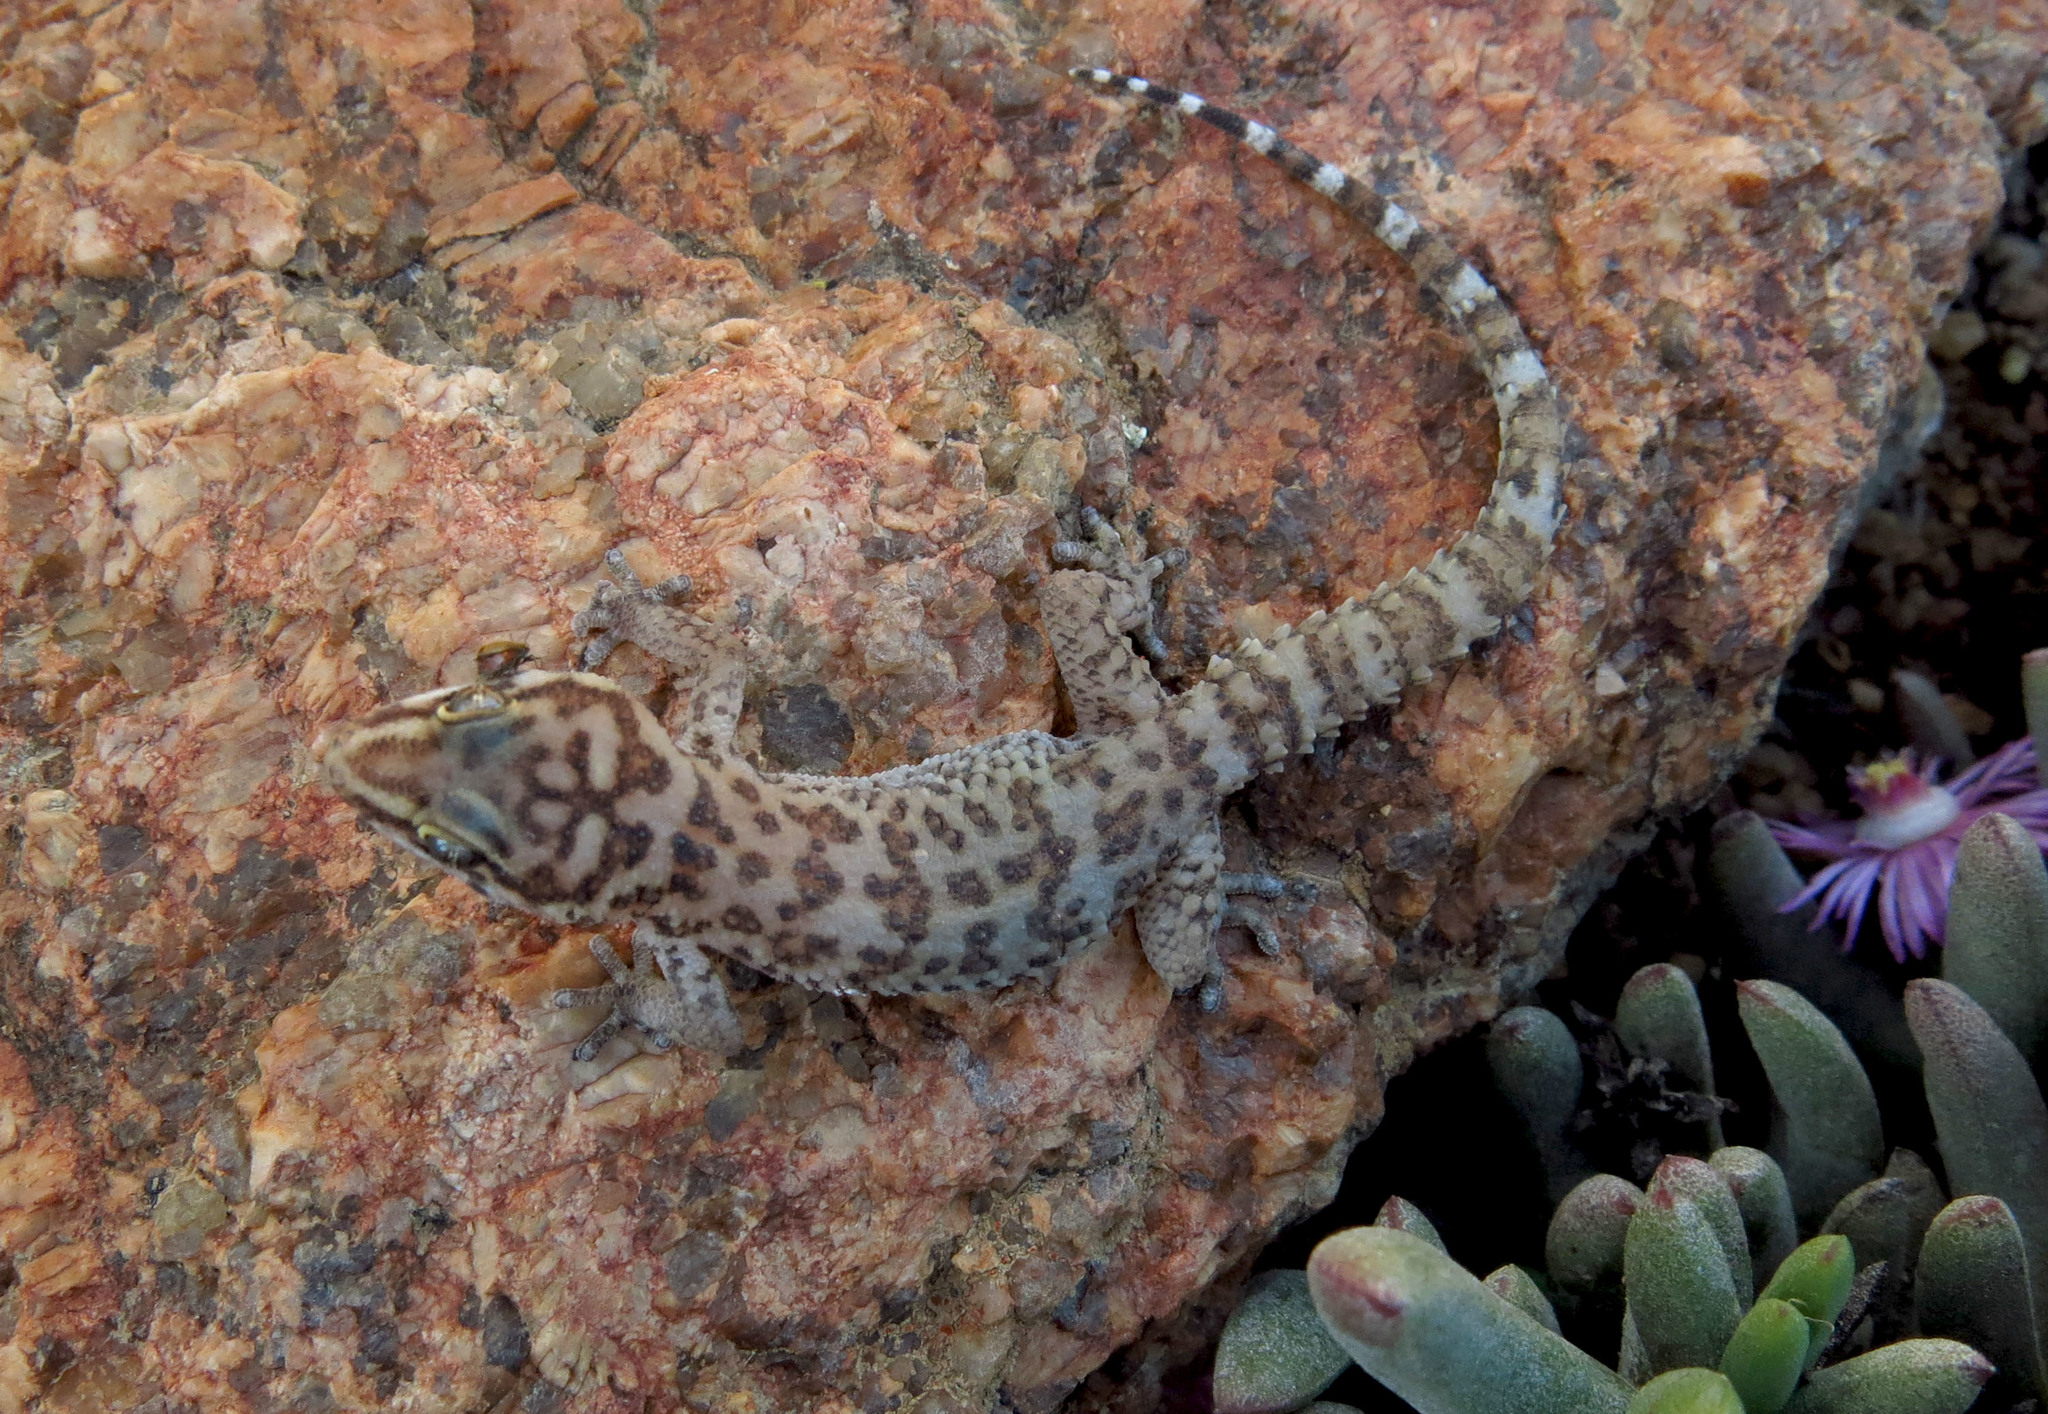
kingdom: Animalia
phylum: Chordata
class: Squamata
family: Gekkonidae
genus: Pachydactylus
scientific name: Pachydactylus weberi
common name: Weber's gecko
